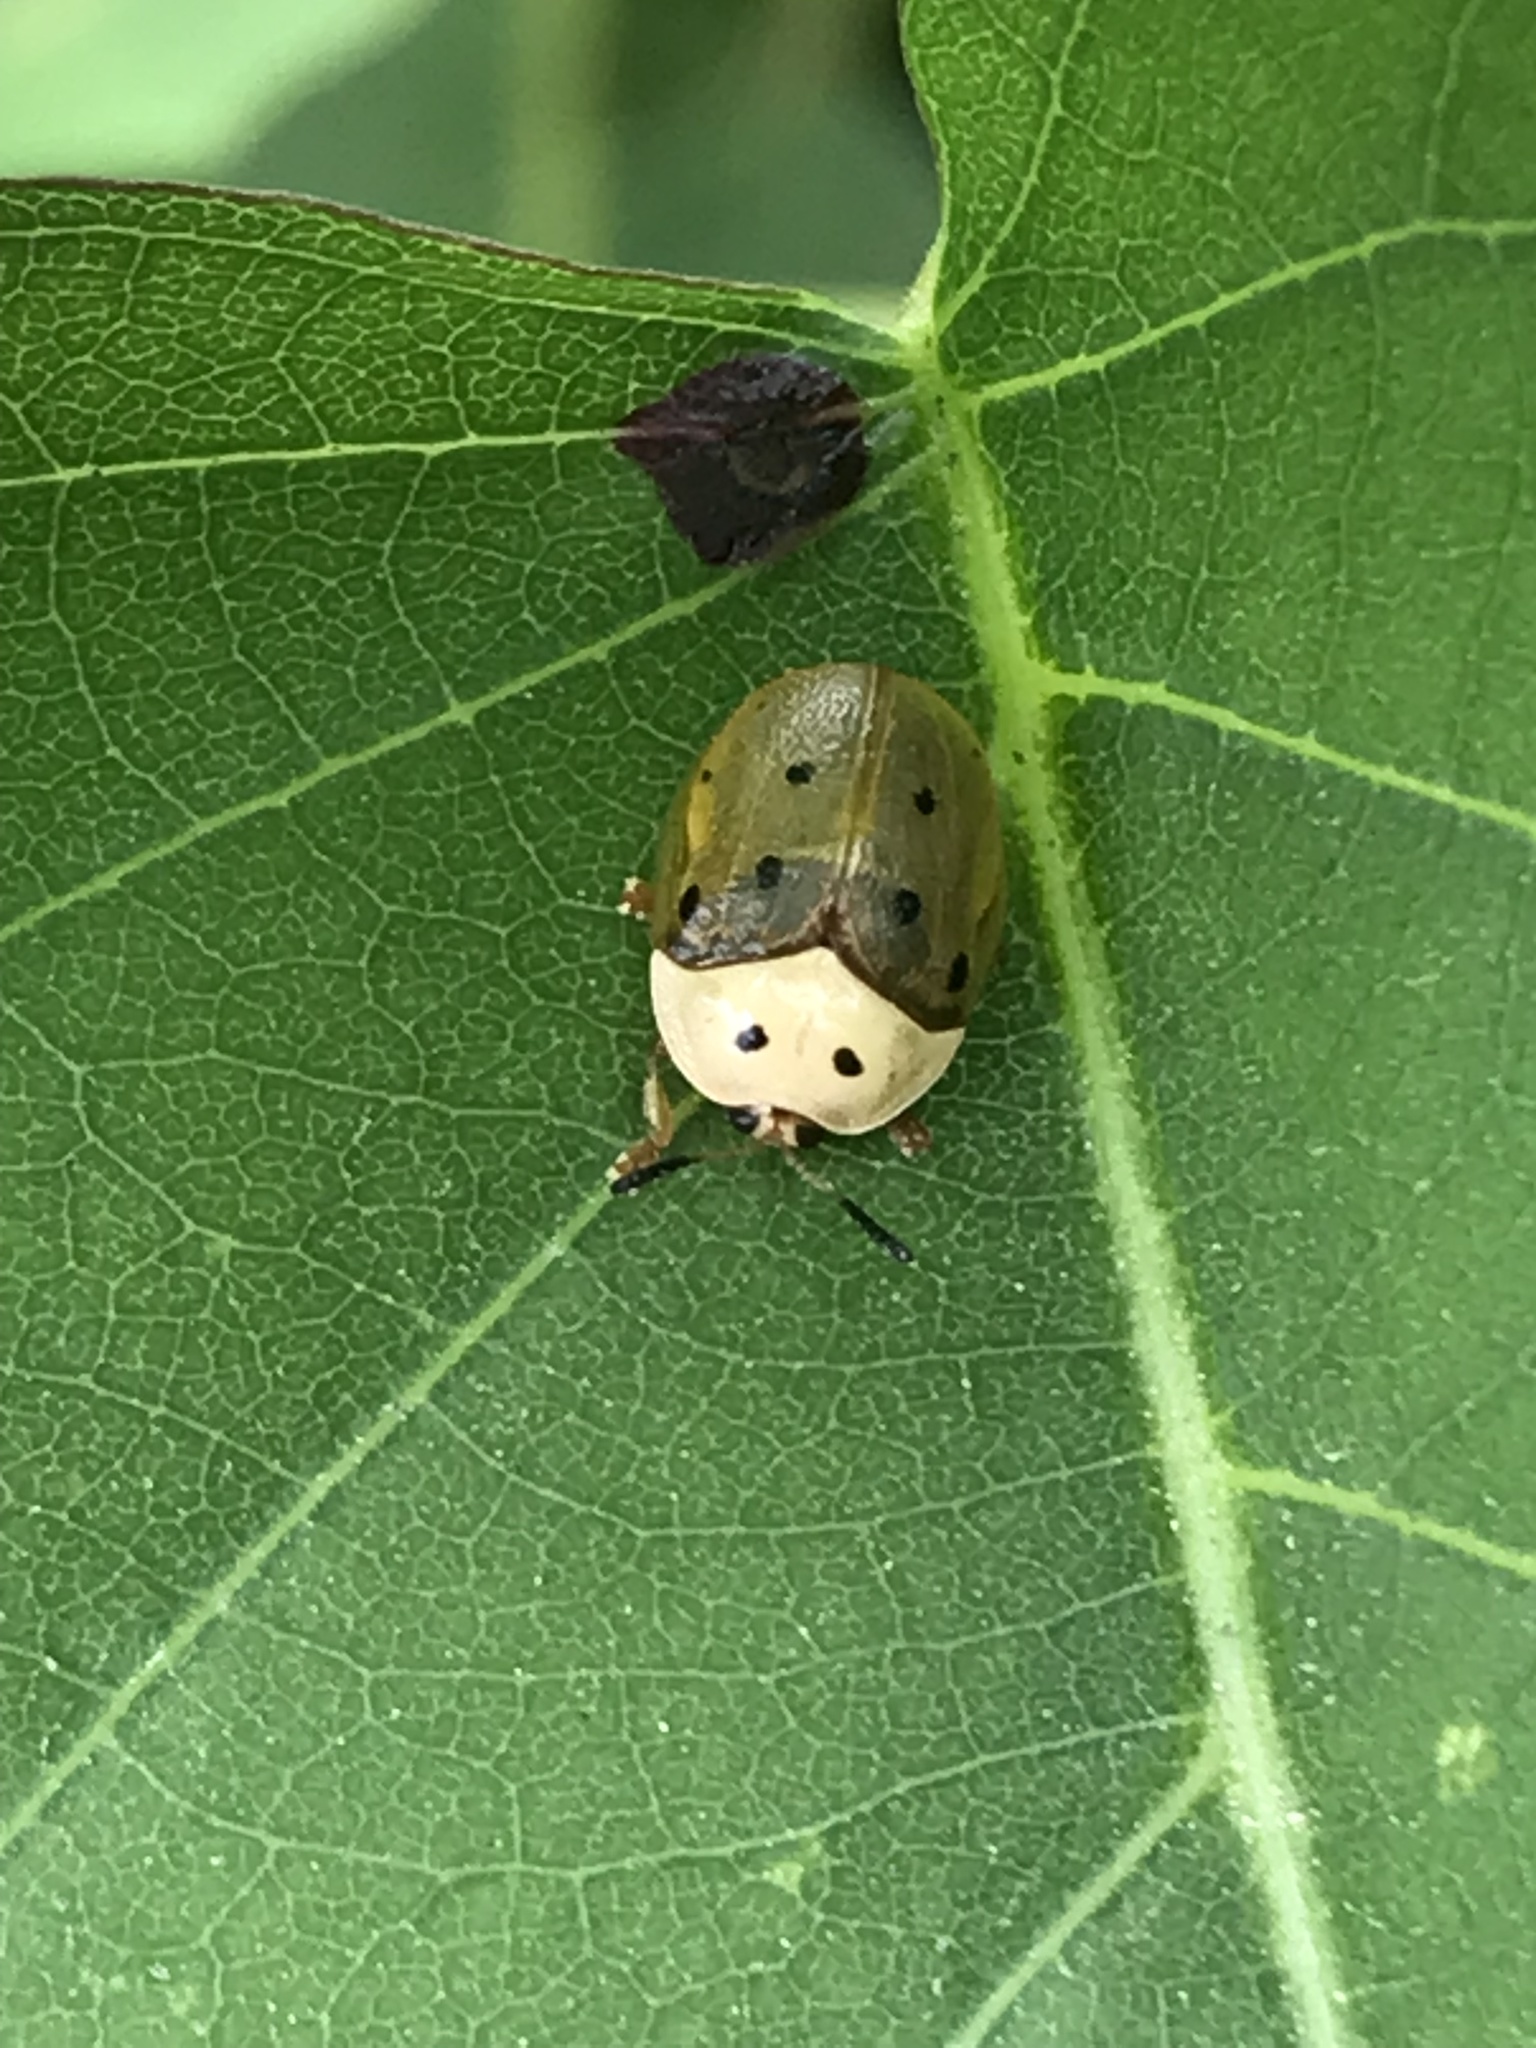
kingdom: Animalia
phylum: Arthropoda
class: Insecta
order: Coleoptera
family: Chrysomelidae
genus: Phytodectoidea
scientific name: Phytodectoidea duodecimsignata
